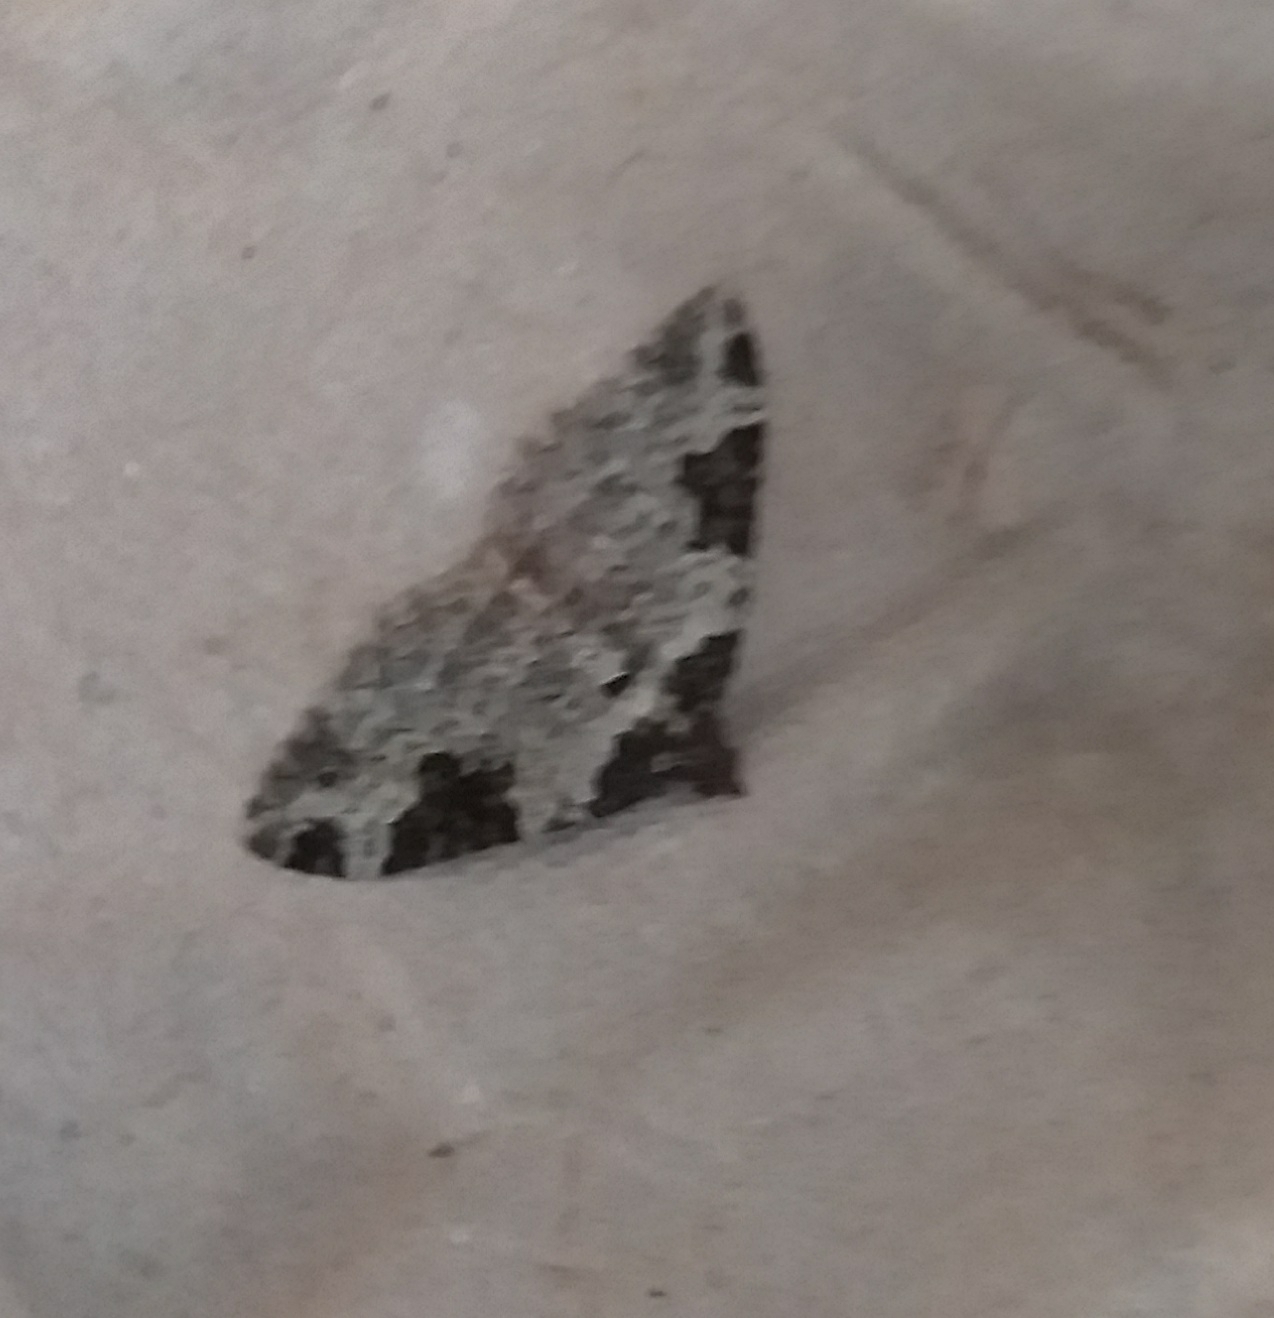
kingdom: Animalia
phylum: Arthropoda
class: Insecta
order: Lepidoptera
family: Geometridae
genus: Xanthorhoe
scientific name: Xanthorhoe fluctuata
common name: Garden carpet
